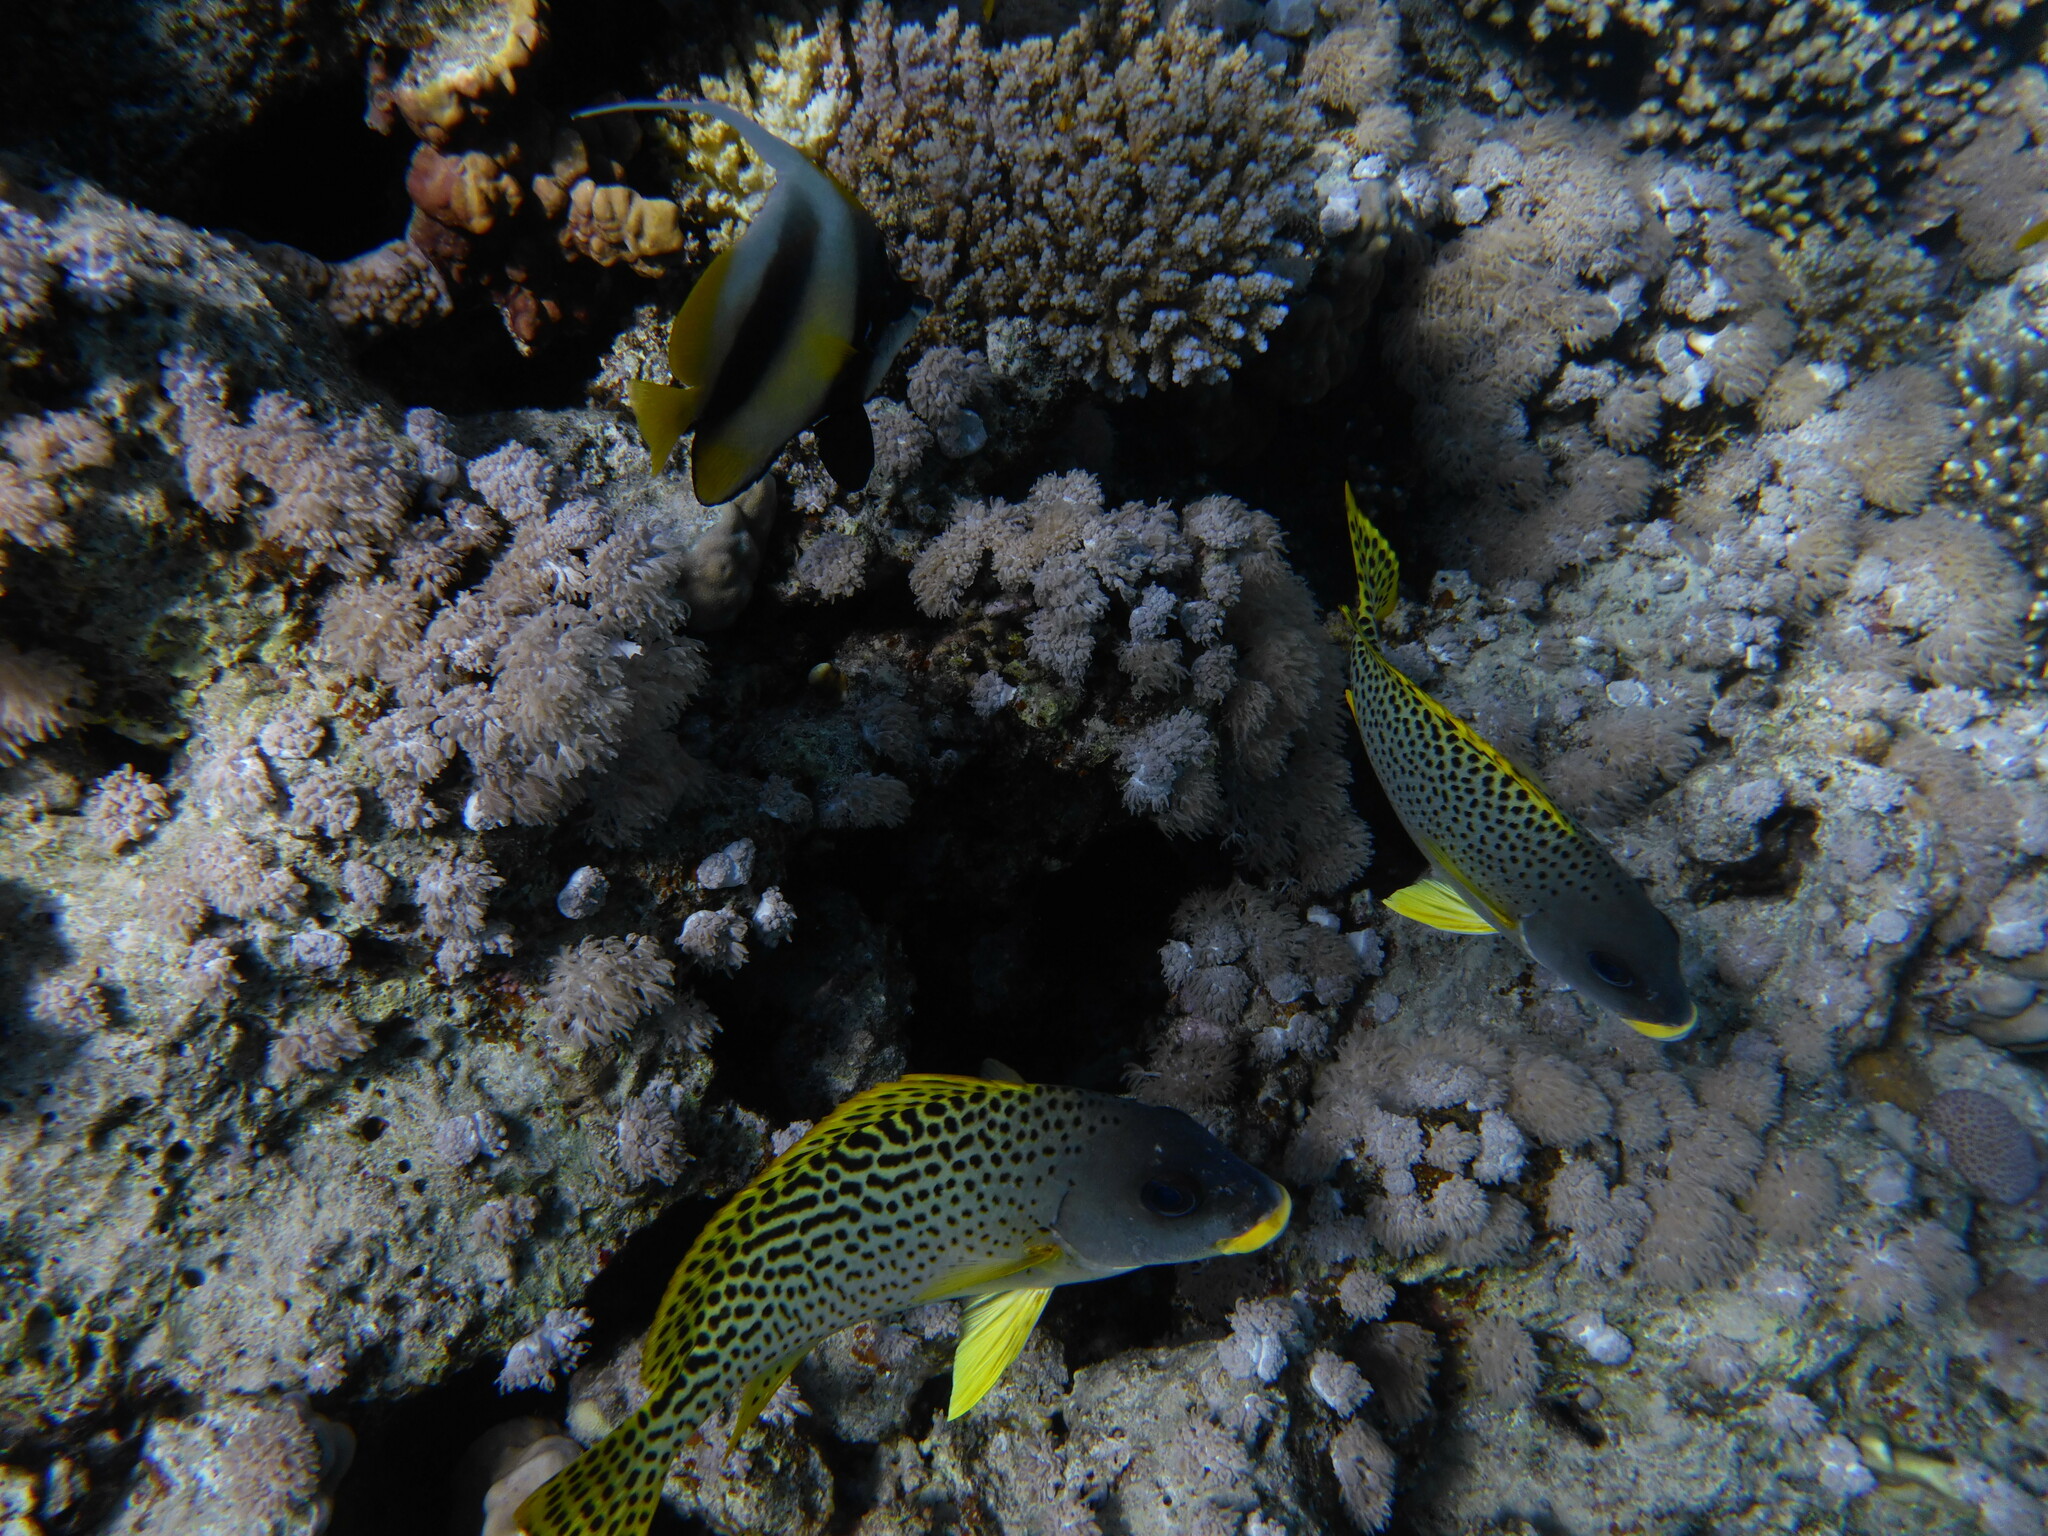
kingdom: Animalia
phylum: Chordata
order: Perciformes
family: Haemulidae
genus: Plectorhinchus
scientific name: Plectorhinchus gaterinus
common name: Blackspotted rubberlip
